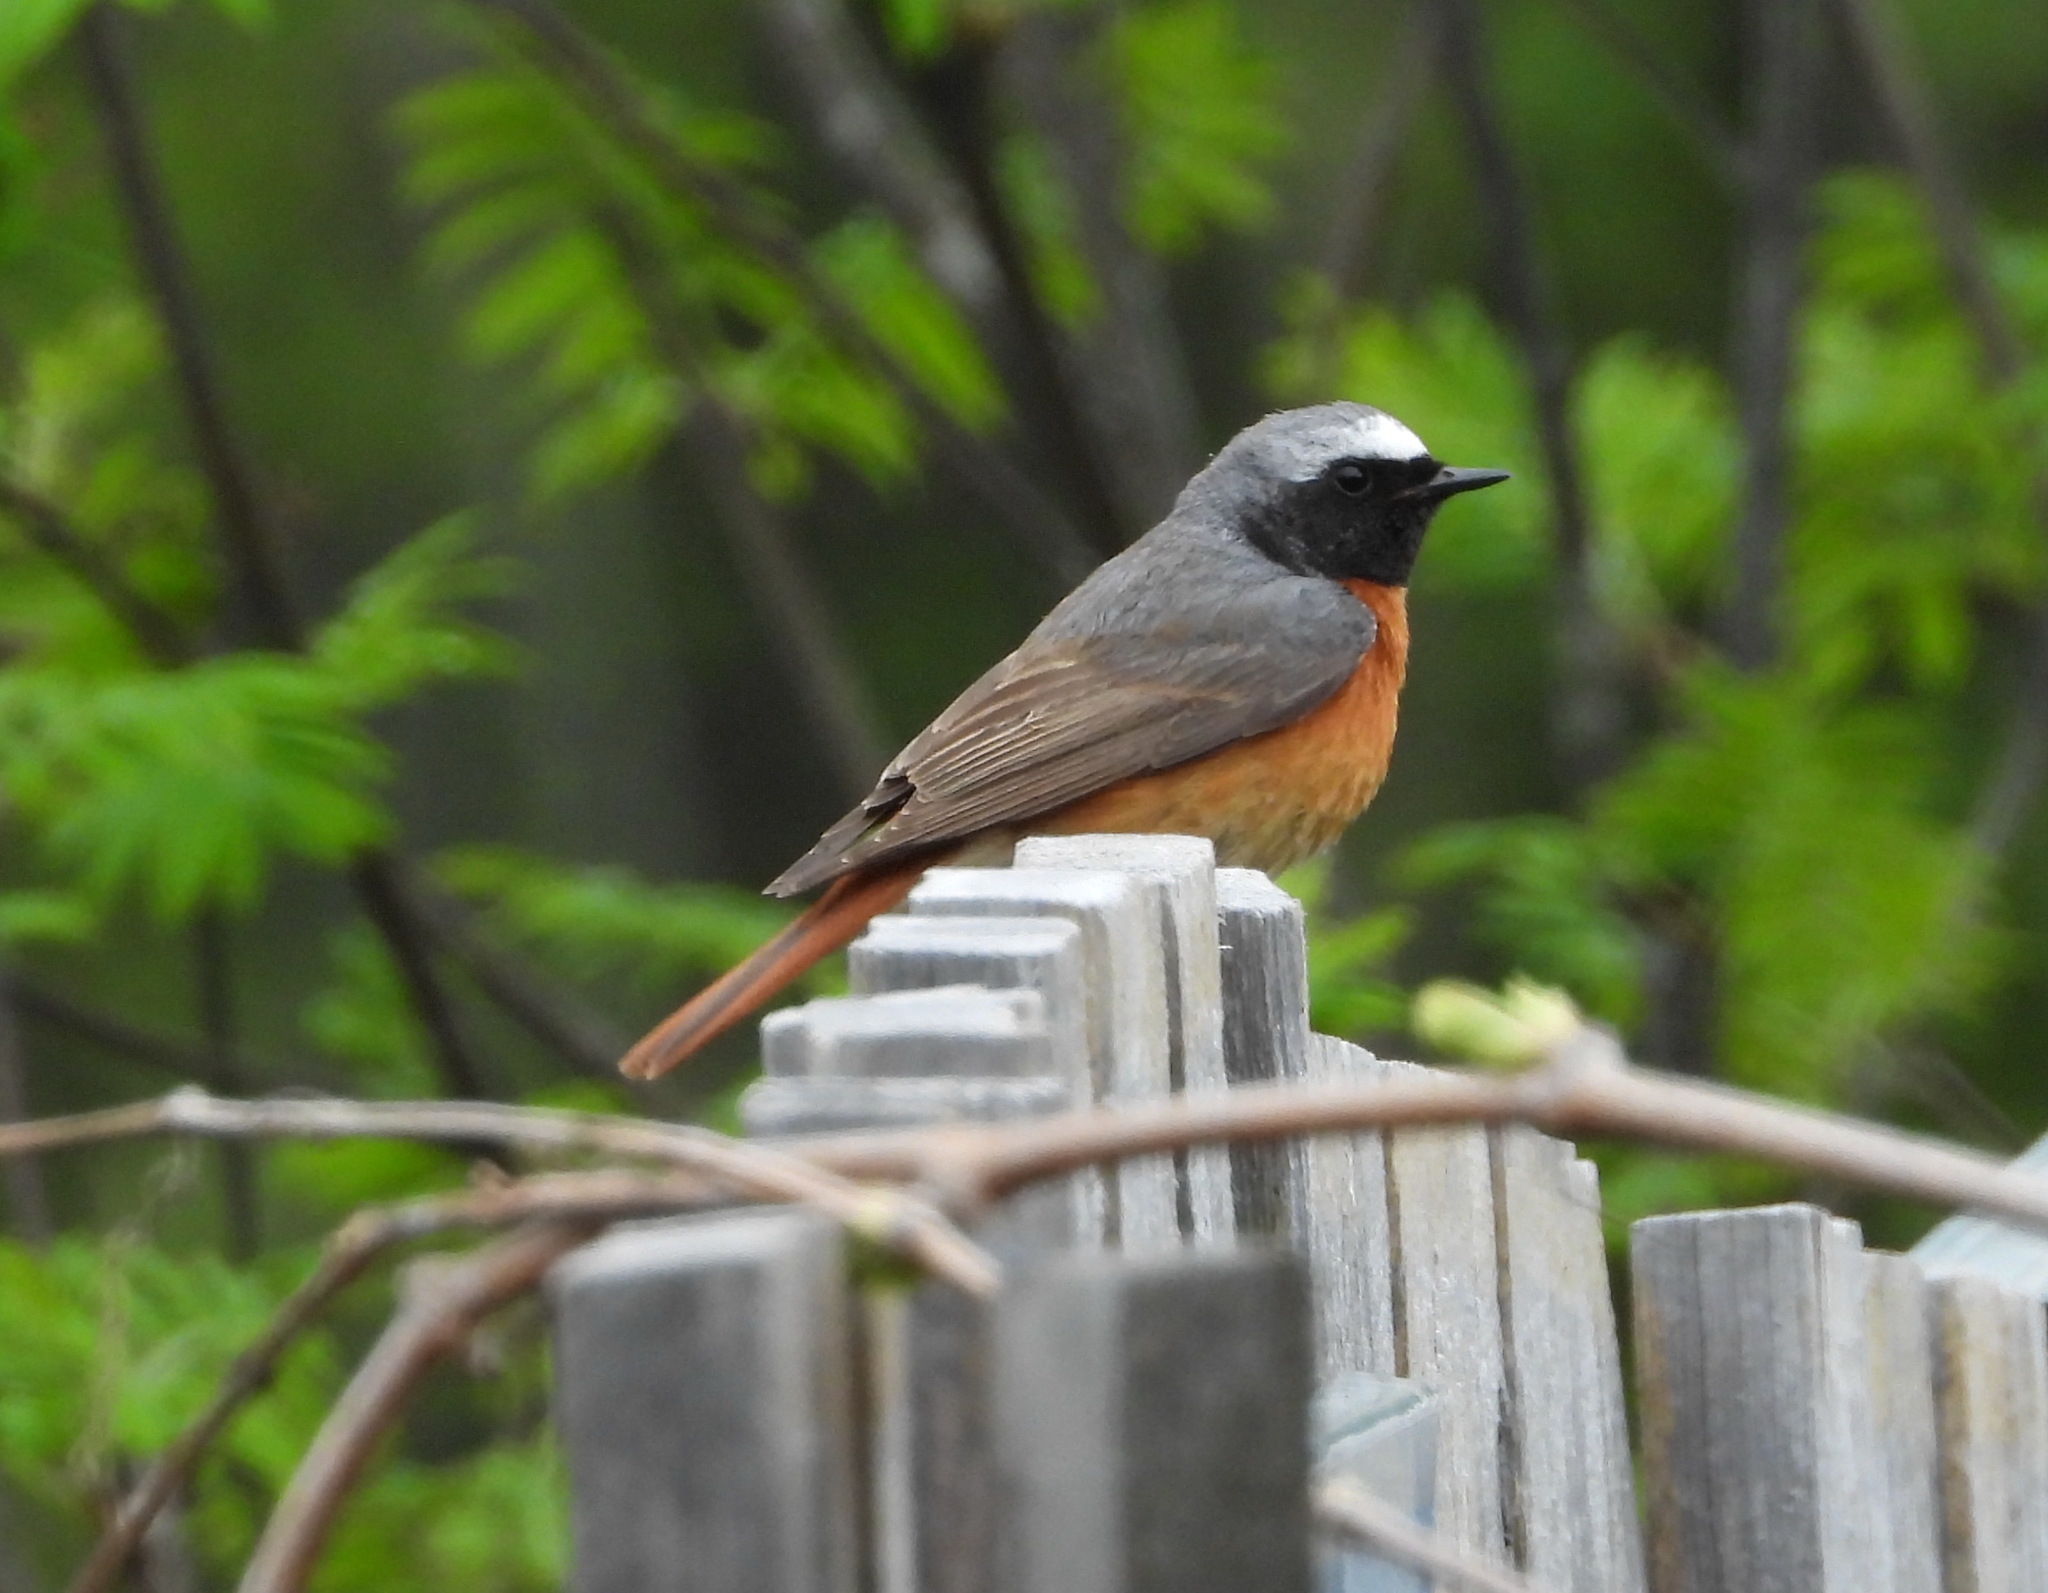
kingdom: Animalia
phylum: Chordata
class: Aves
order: Passeriformes
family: Muscicapidae
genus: Phoenicurus
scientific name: Phoenicurus phoenicurus
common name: Common redstart
